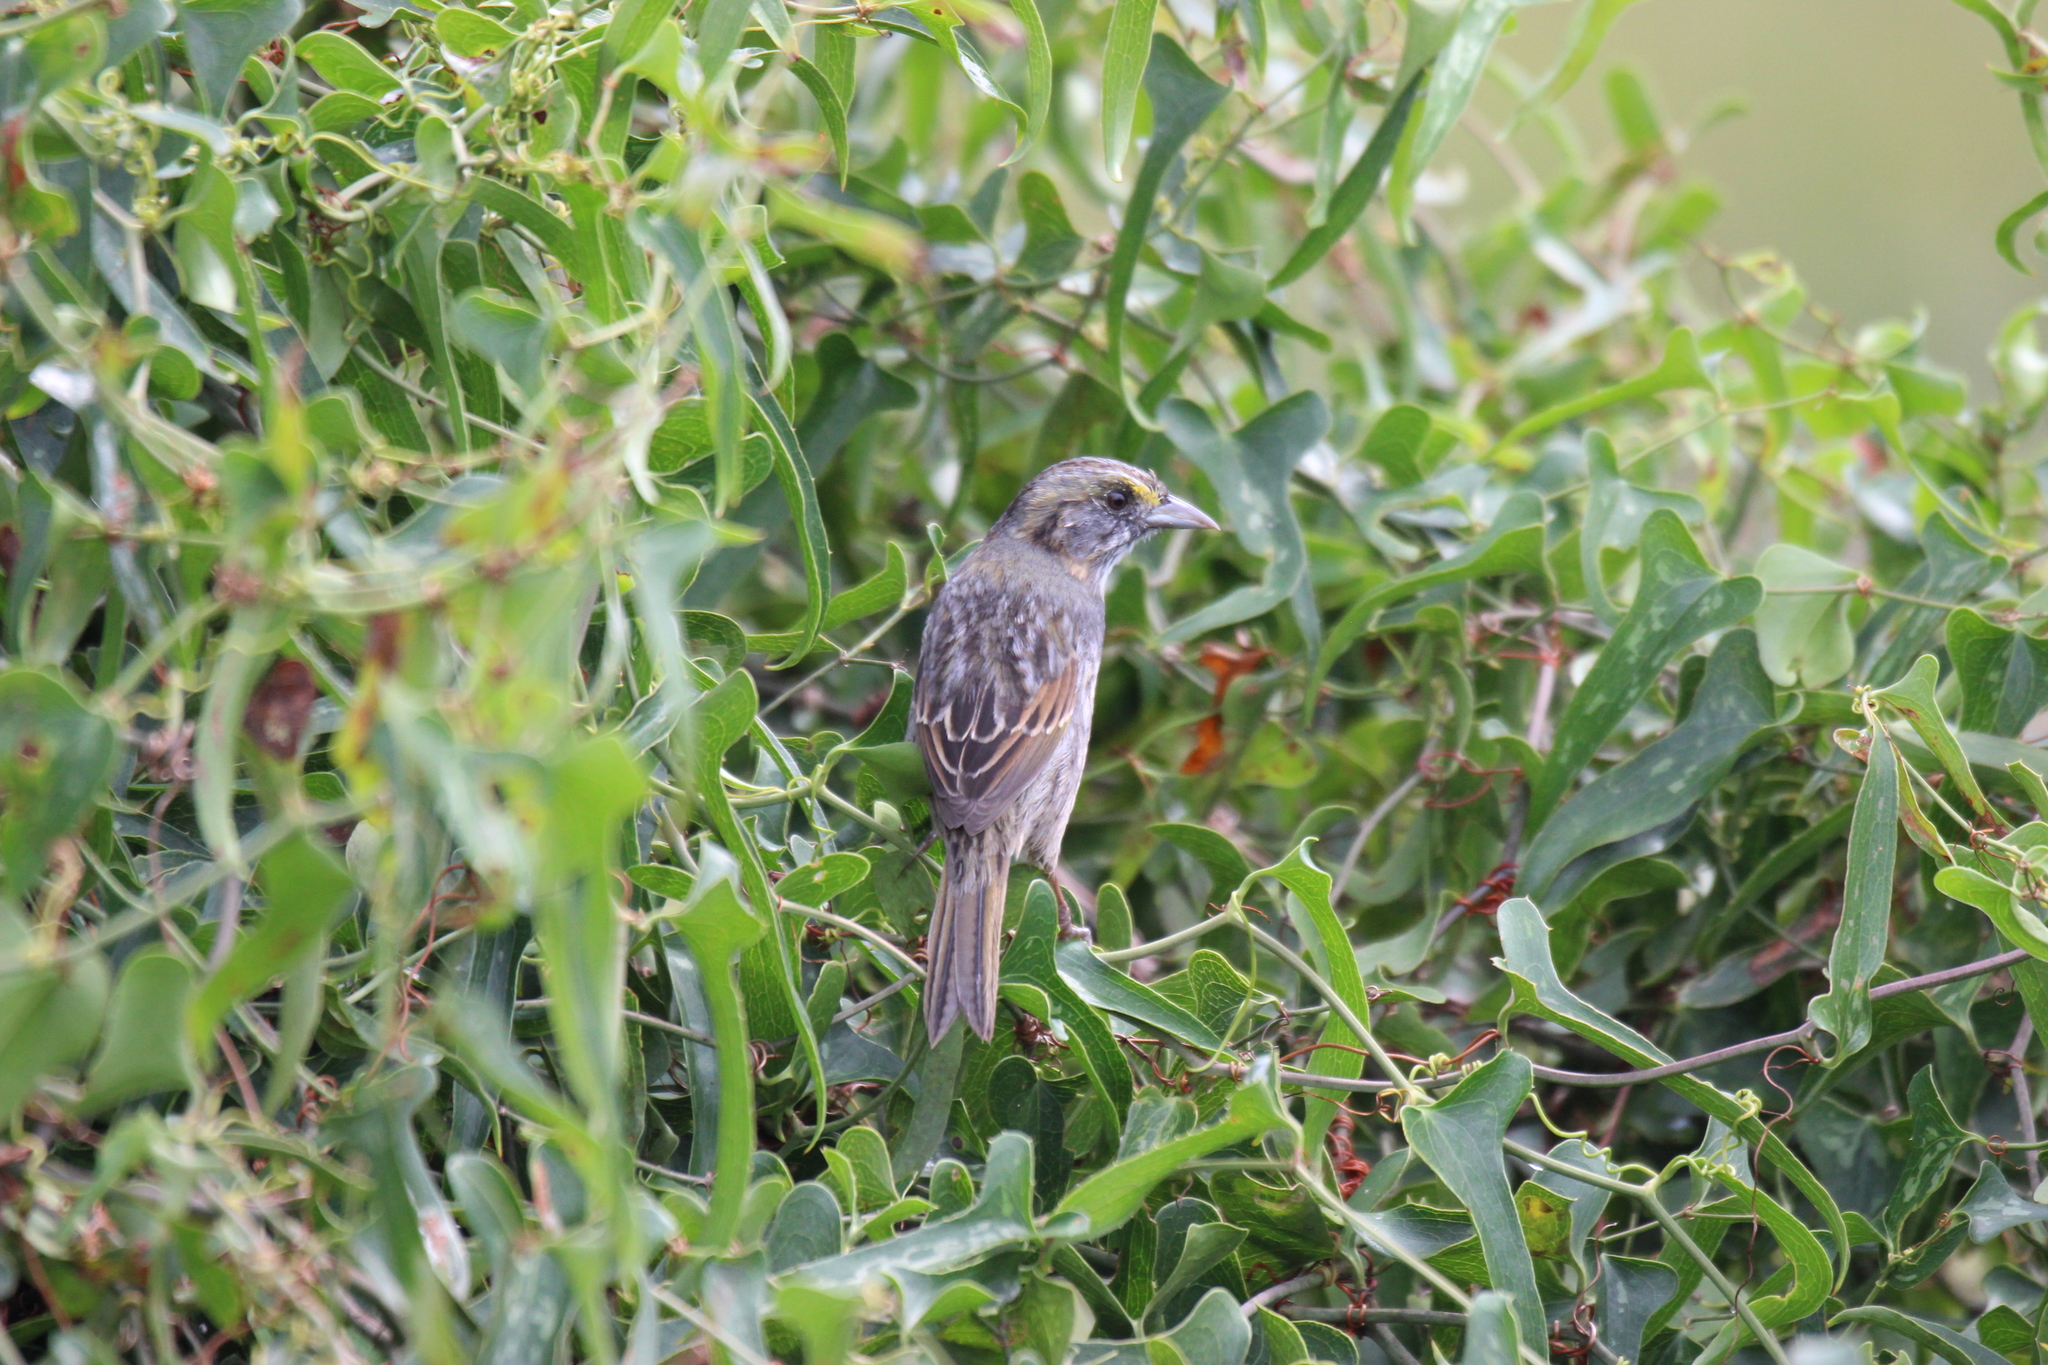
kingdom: Animalia
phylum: Chordata
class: Aves
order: Passeriformes
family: Passerellidae
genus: Ammospiza
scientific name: Ammospiza maritima
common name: Seaside sparrow
